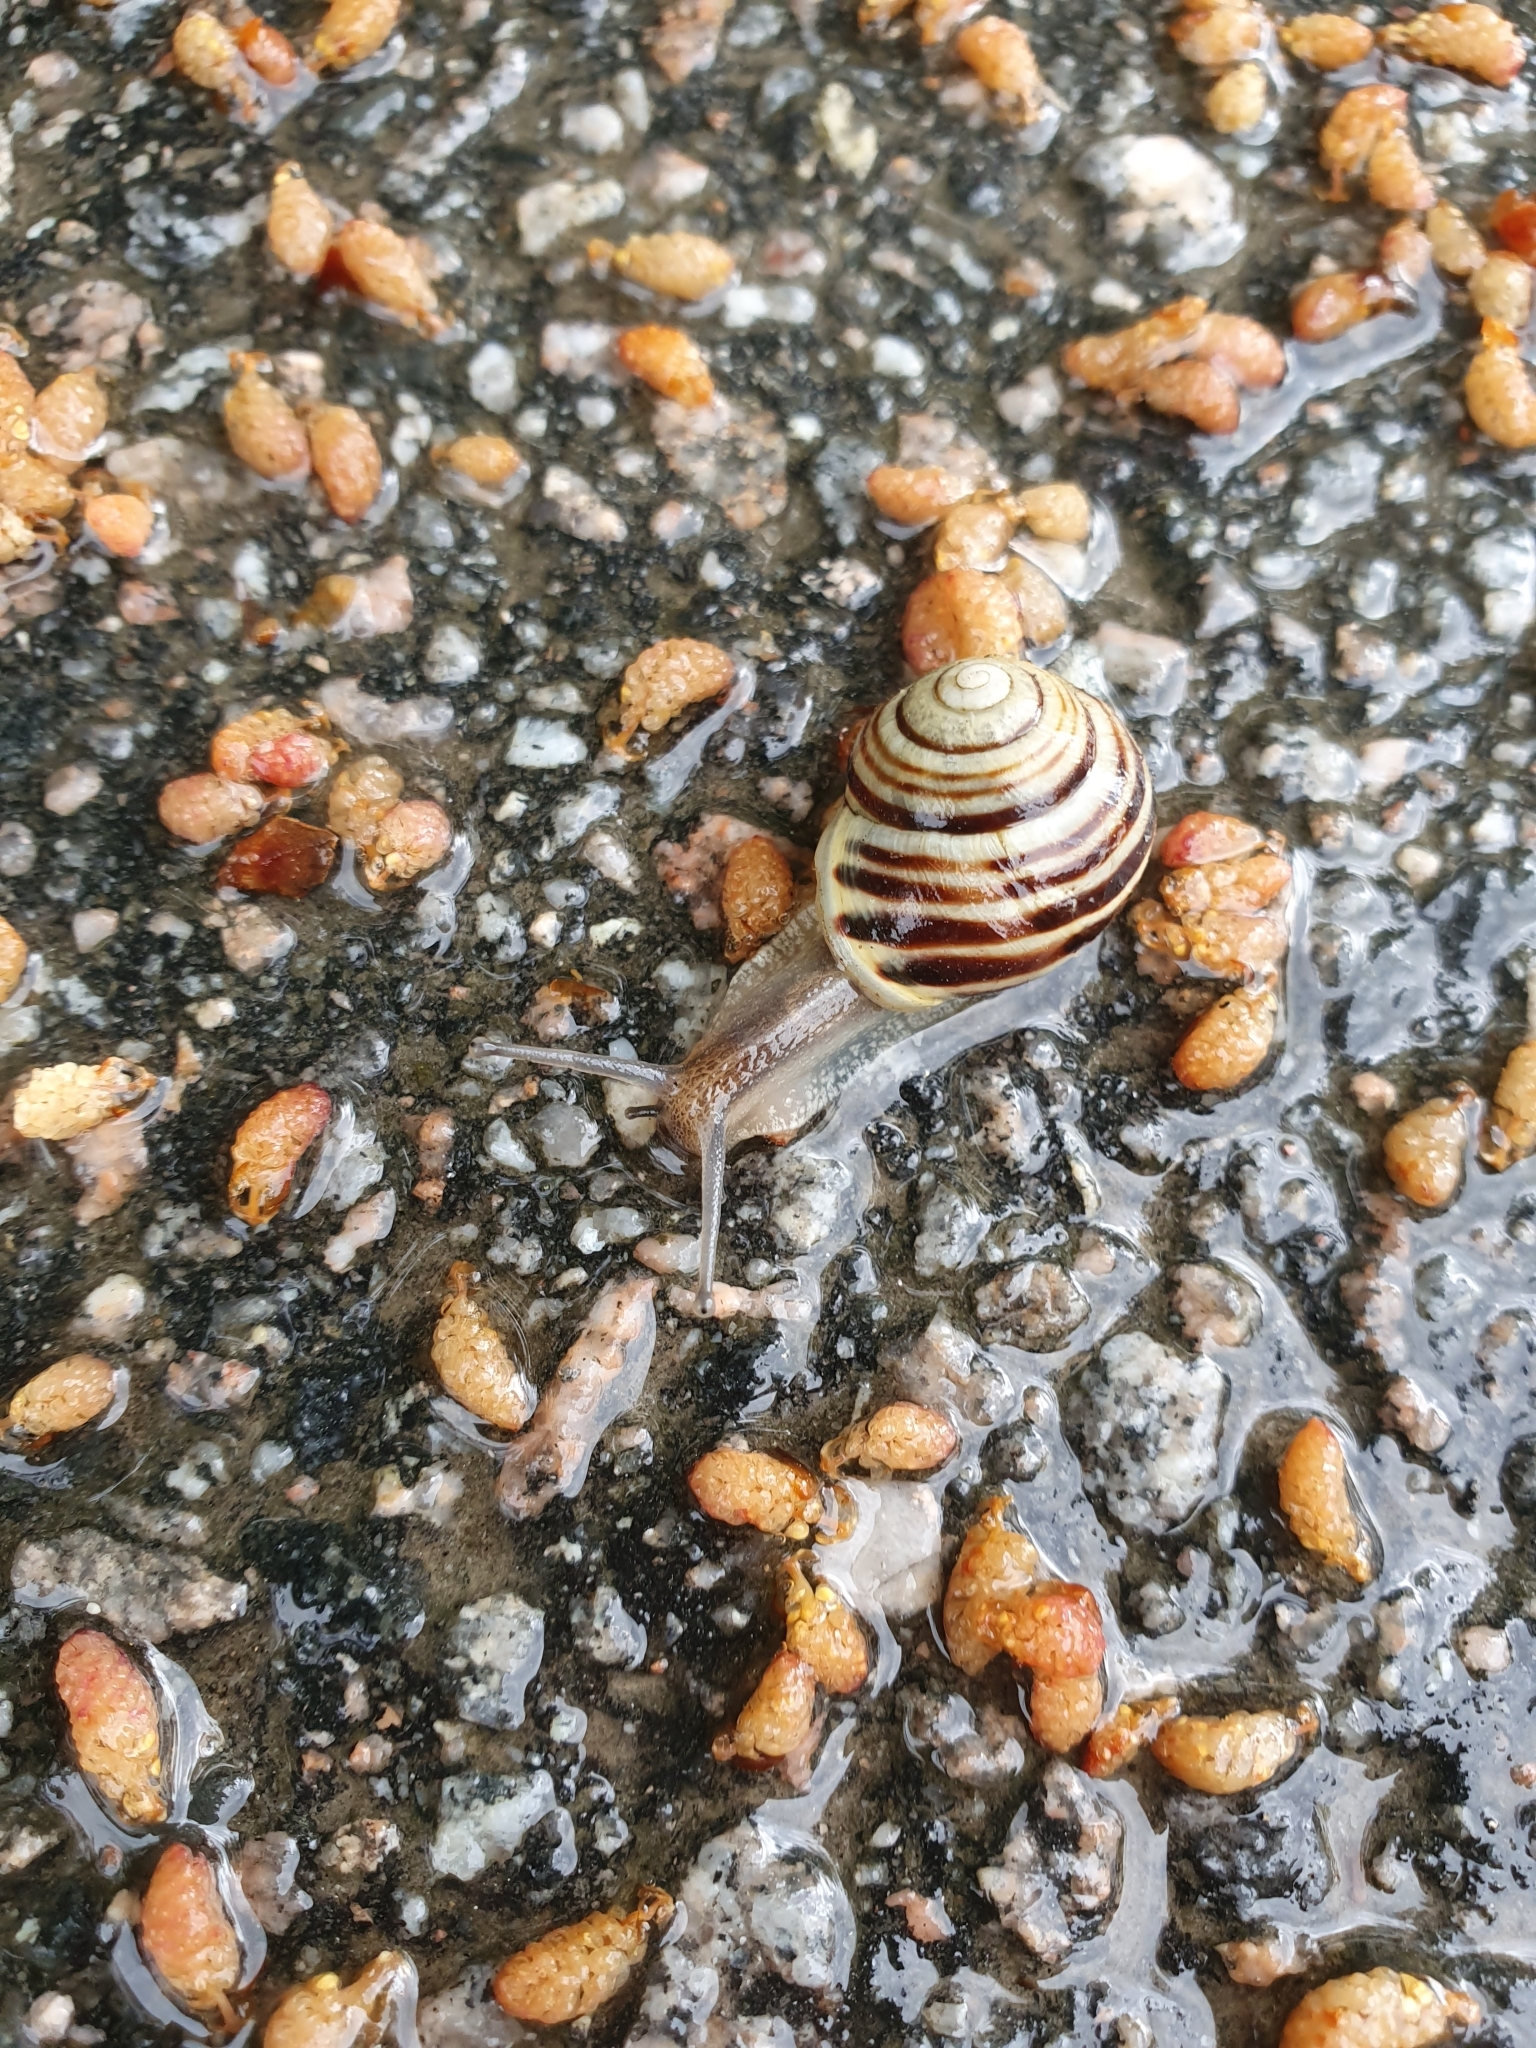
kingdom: Animalia
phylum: Mollusca
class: Gastropoda
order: Stylommatophora
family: Helicidae
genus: Cepaea
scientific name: Cepaea hortensis
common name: White-lip gardensnail
